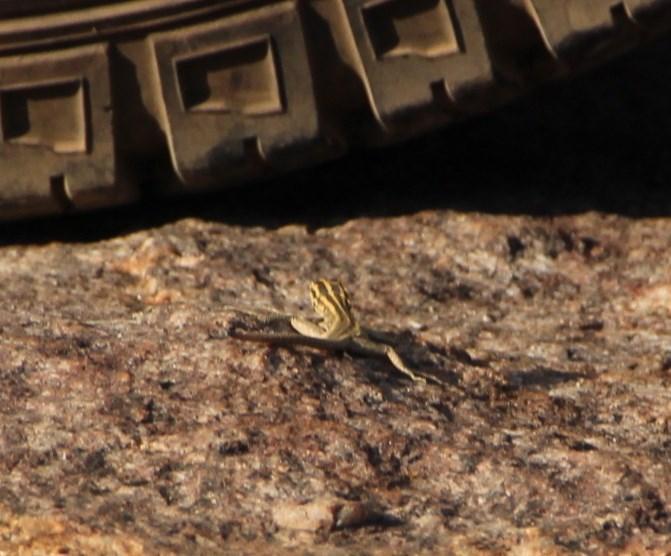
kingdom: Animalia
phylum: Chordata
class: Squamata
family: Cordylidae
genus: Platysaurus
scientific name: Platysaurus capensis
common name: Namaqua flat lizard
